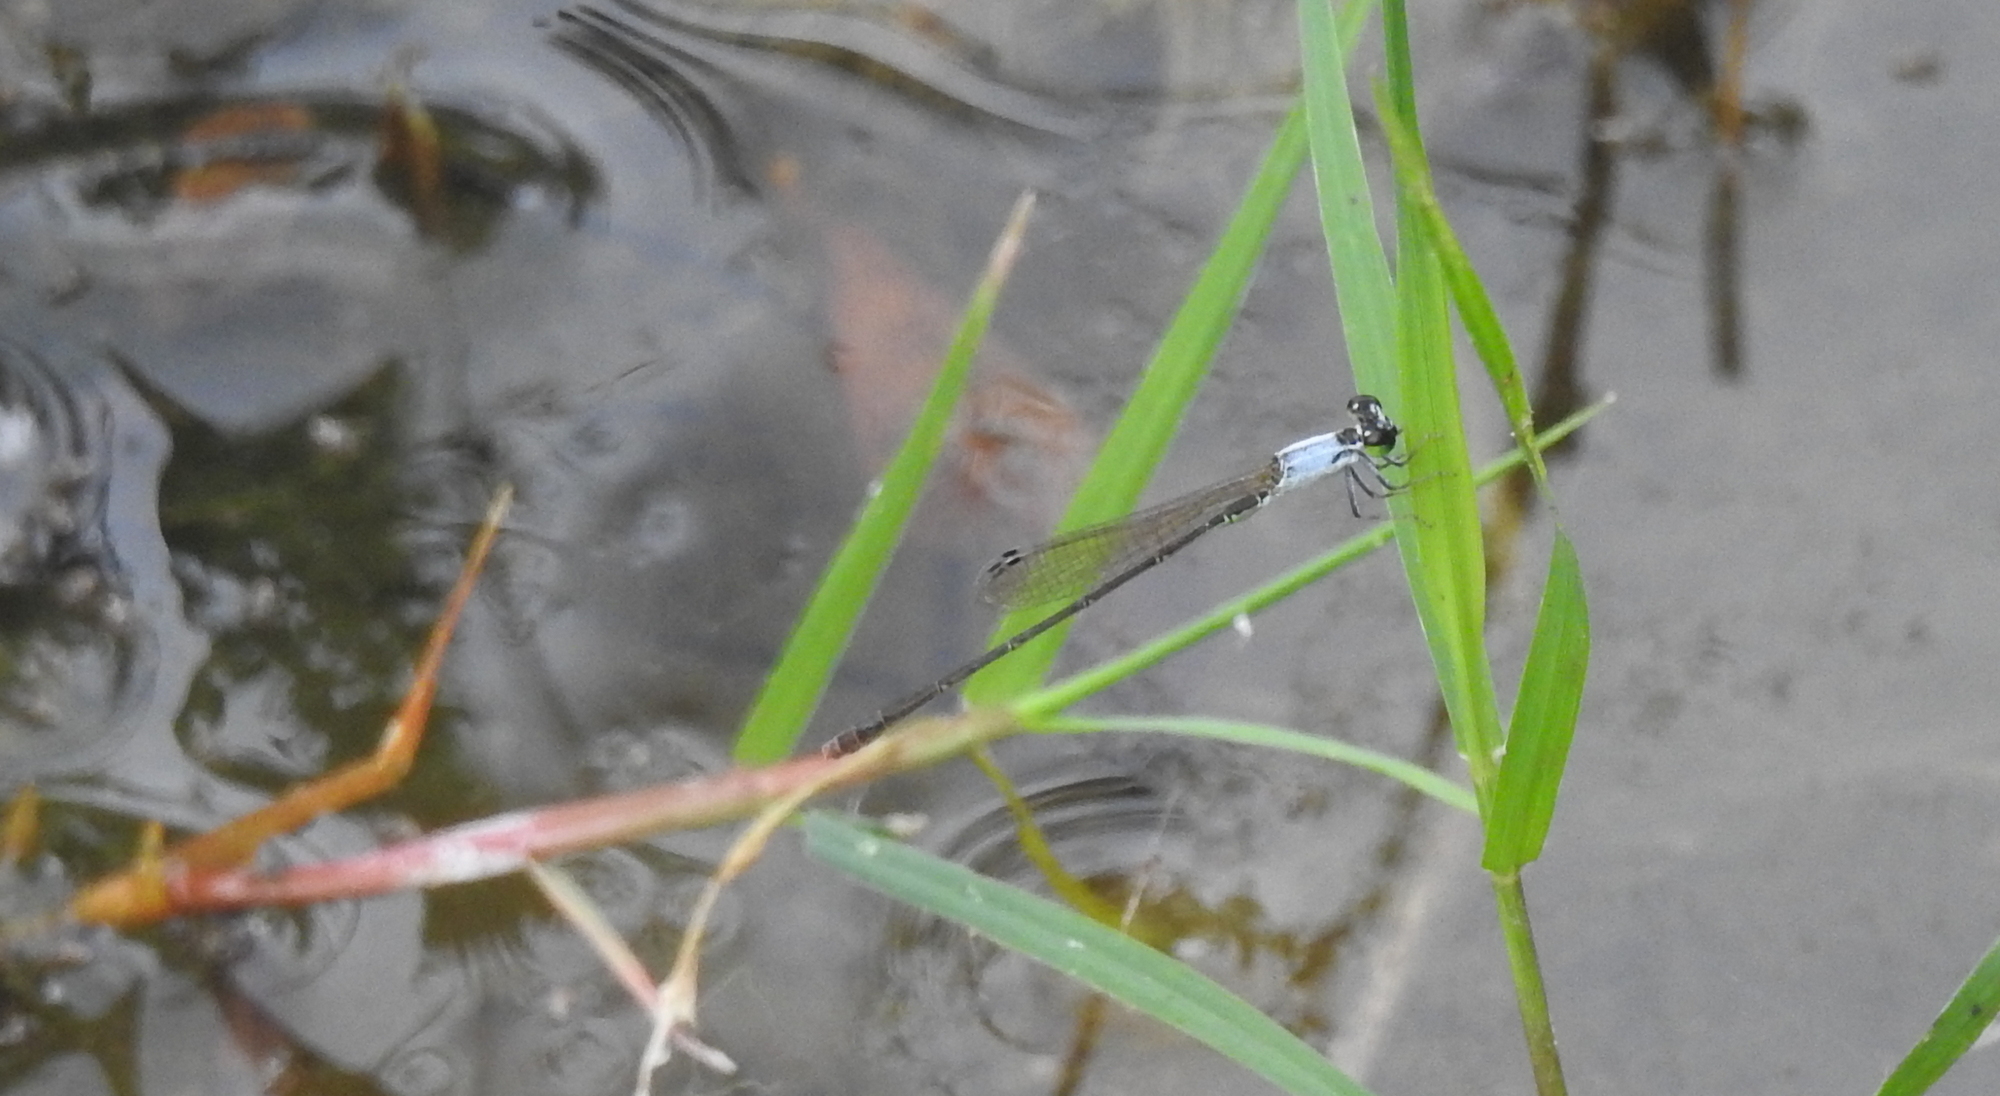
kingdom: Animalia
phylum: Arthropoda
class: Insecta
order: Odonata
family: Coenagrionidae
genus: Agriocnemis
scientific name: Agriocnemis pygmaea
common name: Pygmy wisp
